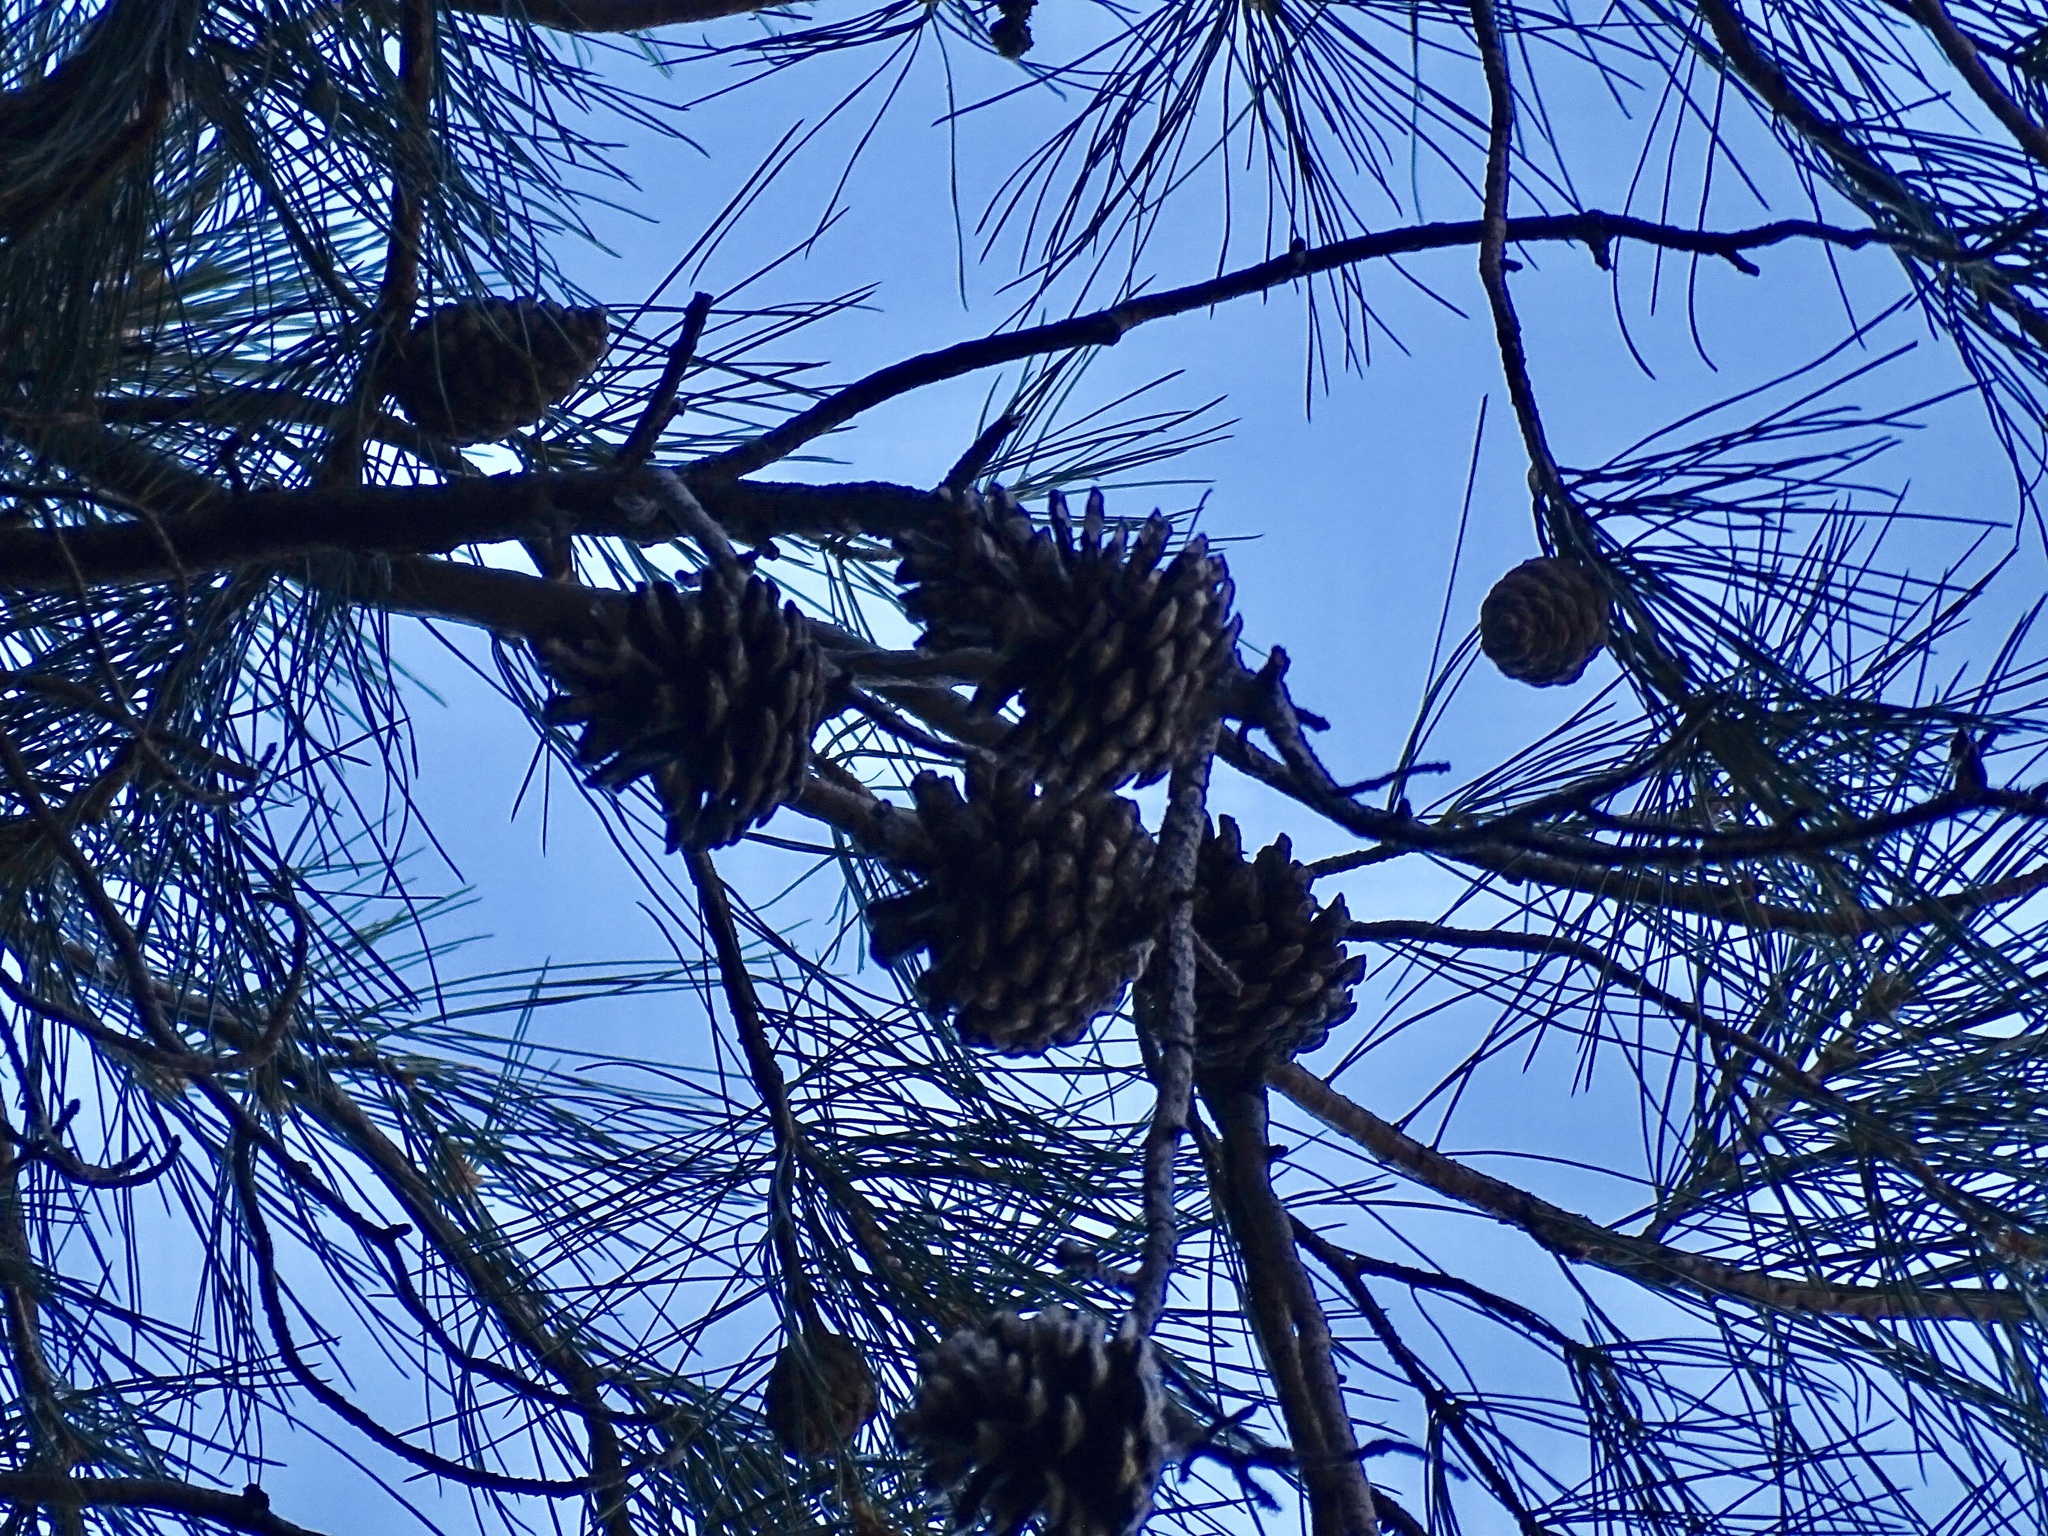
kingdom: Plantae
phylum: Tracheophyta
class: Pinopsida
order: Pinales
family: Pinaceae
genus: Pinus
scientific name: Pinus leiophylla
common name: Chihuahua pine
